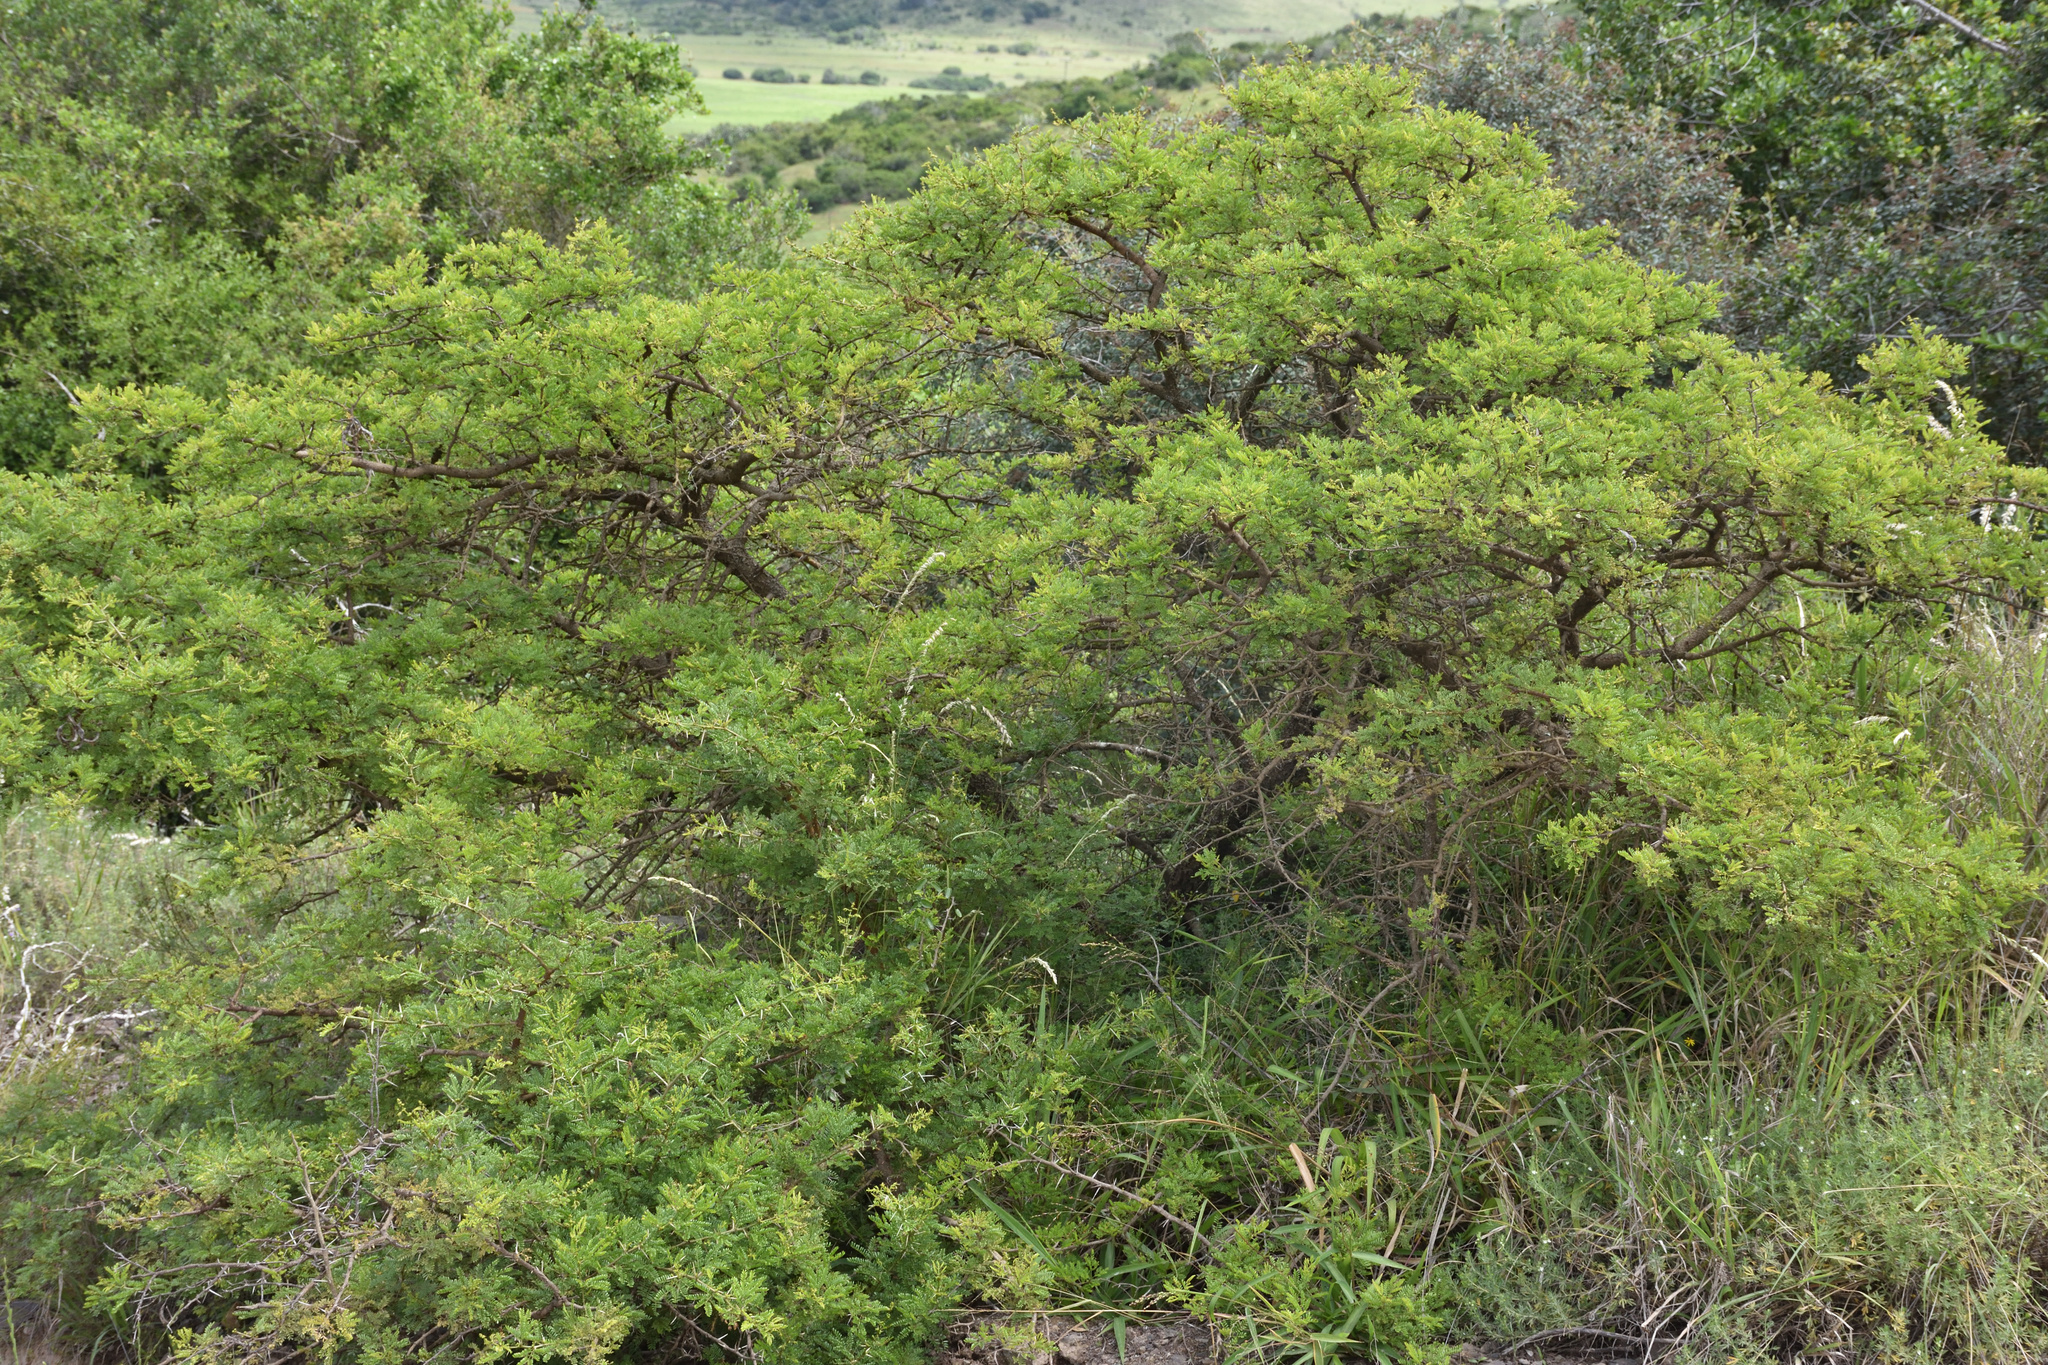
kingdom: Plantae
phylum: Tracheophyta
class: Magnoliopsida
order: Fabales
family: Fabaceae
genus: Vachellia
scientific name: Vachellia karroo
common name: Sweet thorn
